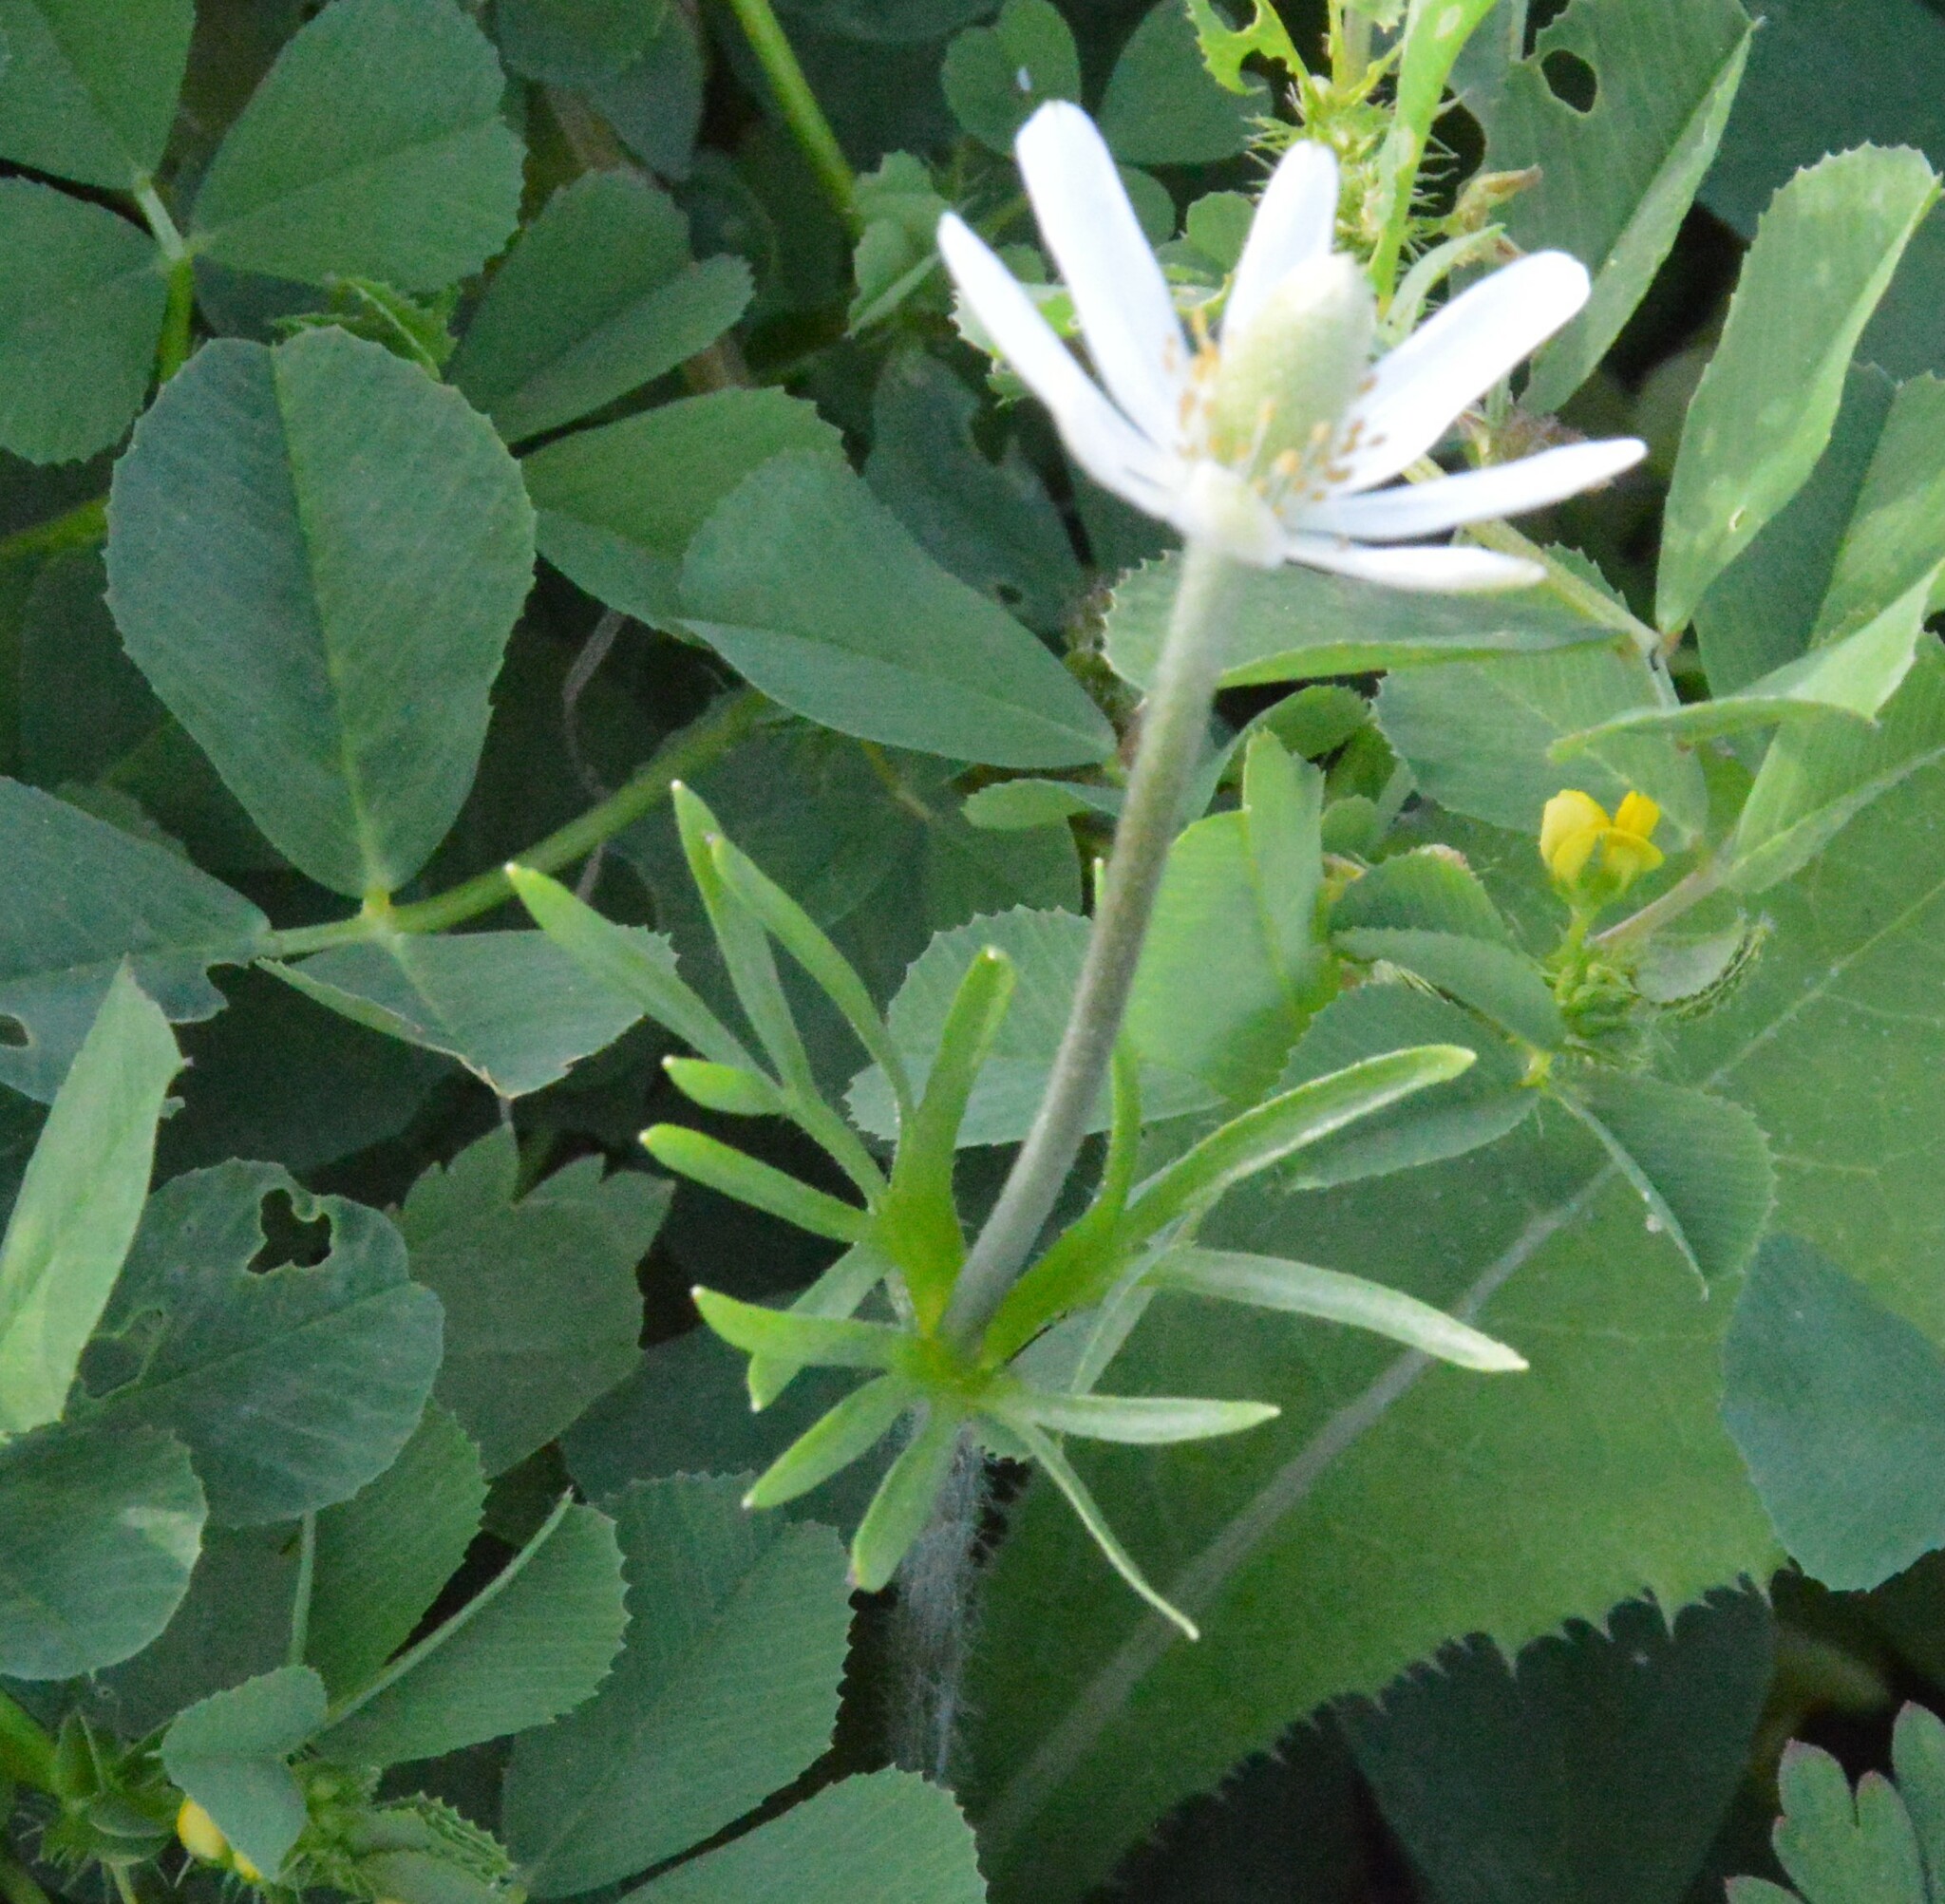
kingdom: Plantae
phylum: Tracheophyta
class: Magnoliopsida
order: Ranunculales
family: Ranunculaceae
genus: Anemone
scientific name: Anemone berlandieri
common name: Ten-petal anemone
